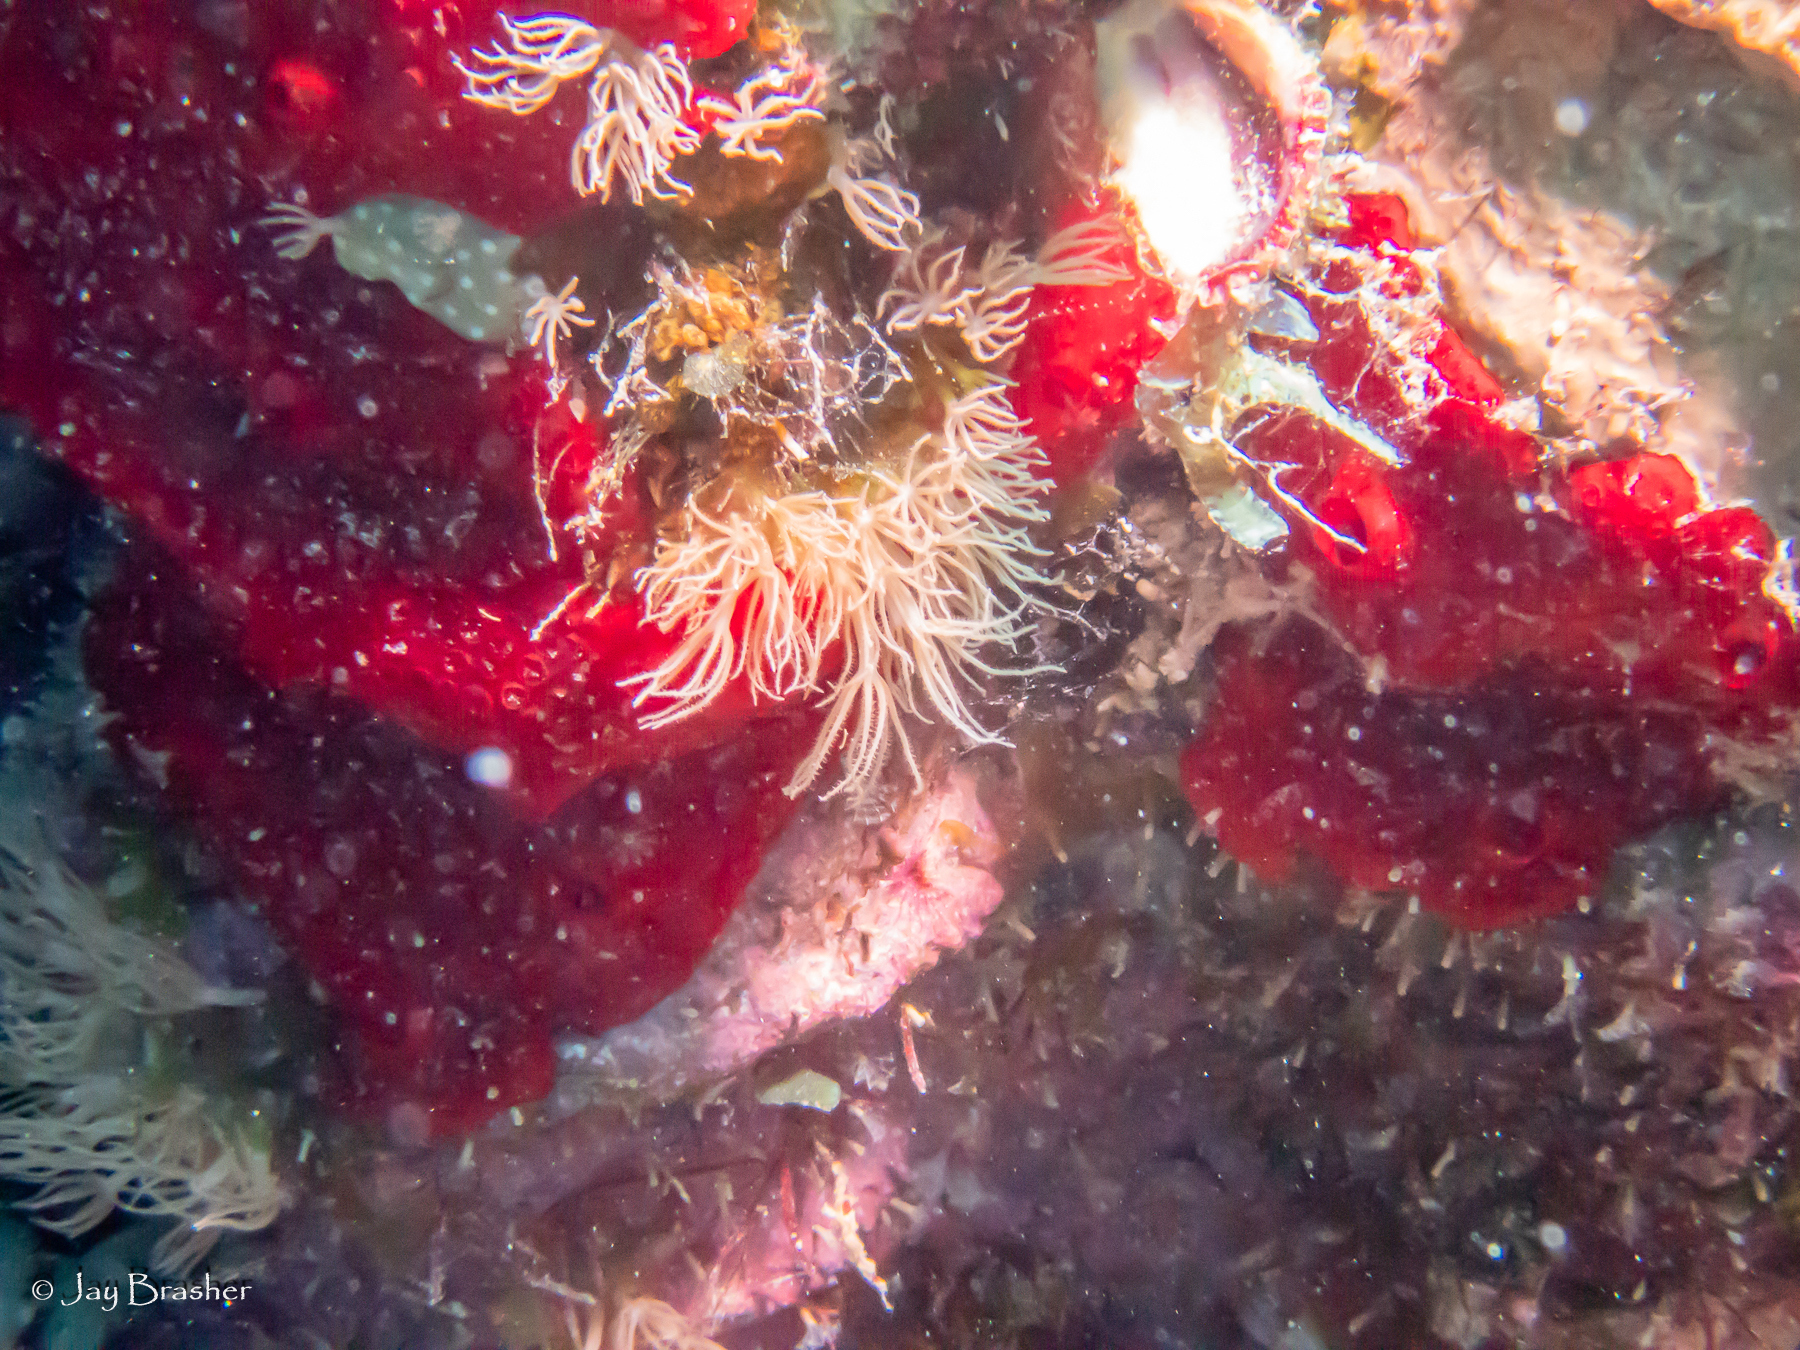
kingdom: Animalia
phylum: Porifera
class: Demospongiae
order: Poecilosclerida
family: Hymedesmiidae
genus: Phorbas
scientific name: Phorbas amaranthus
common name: Red sieve encrusting sponge
